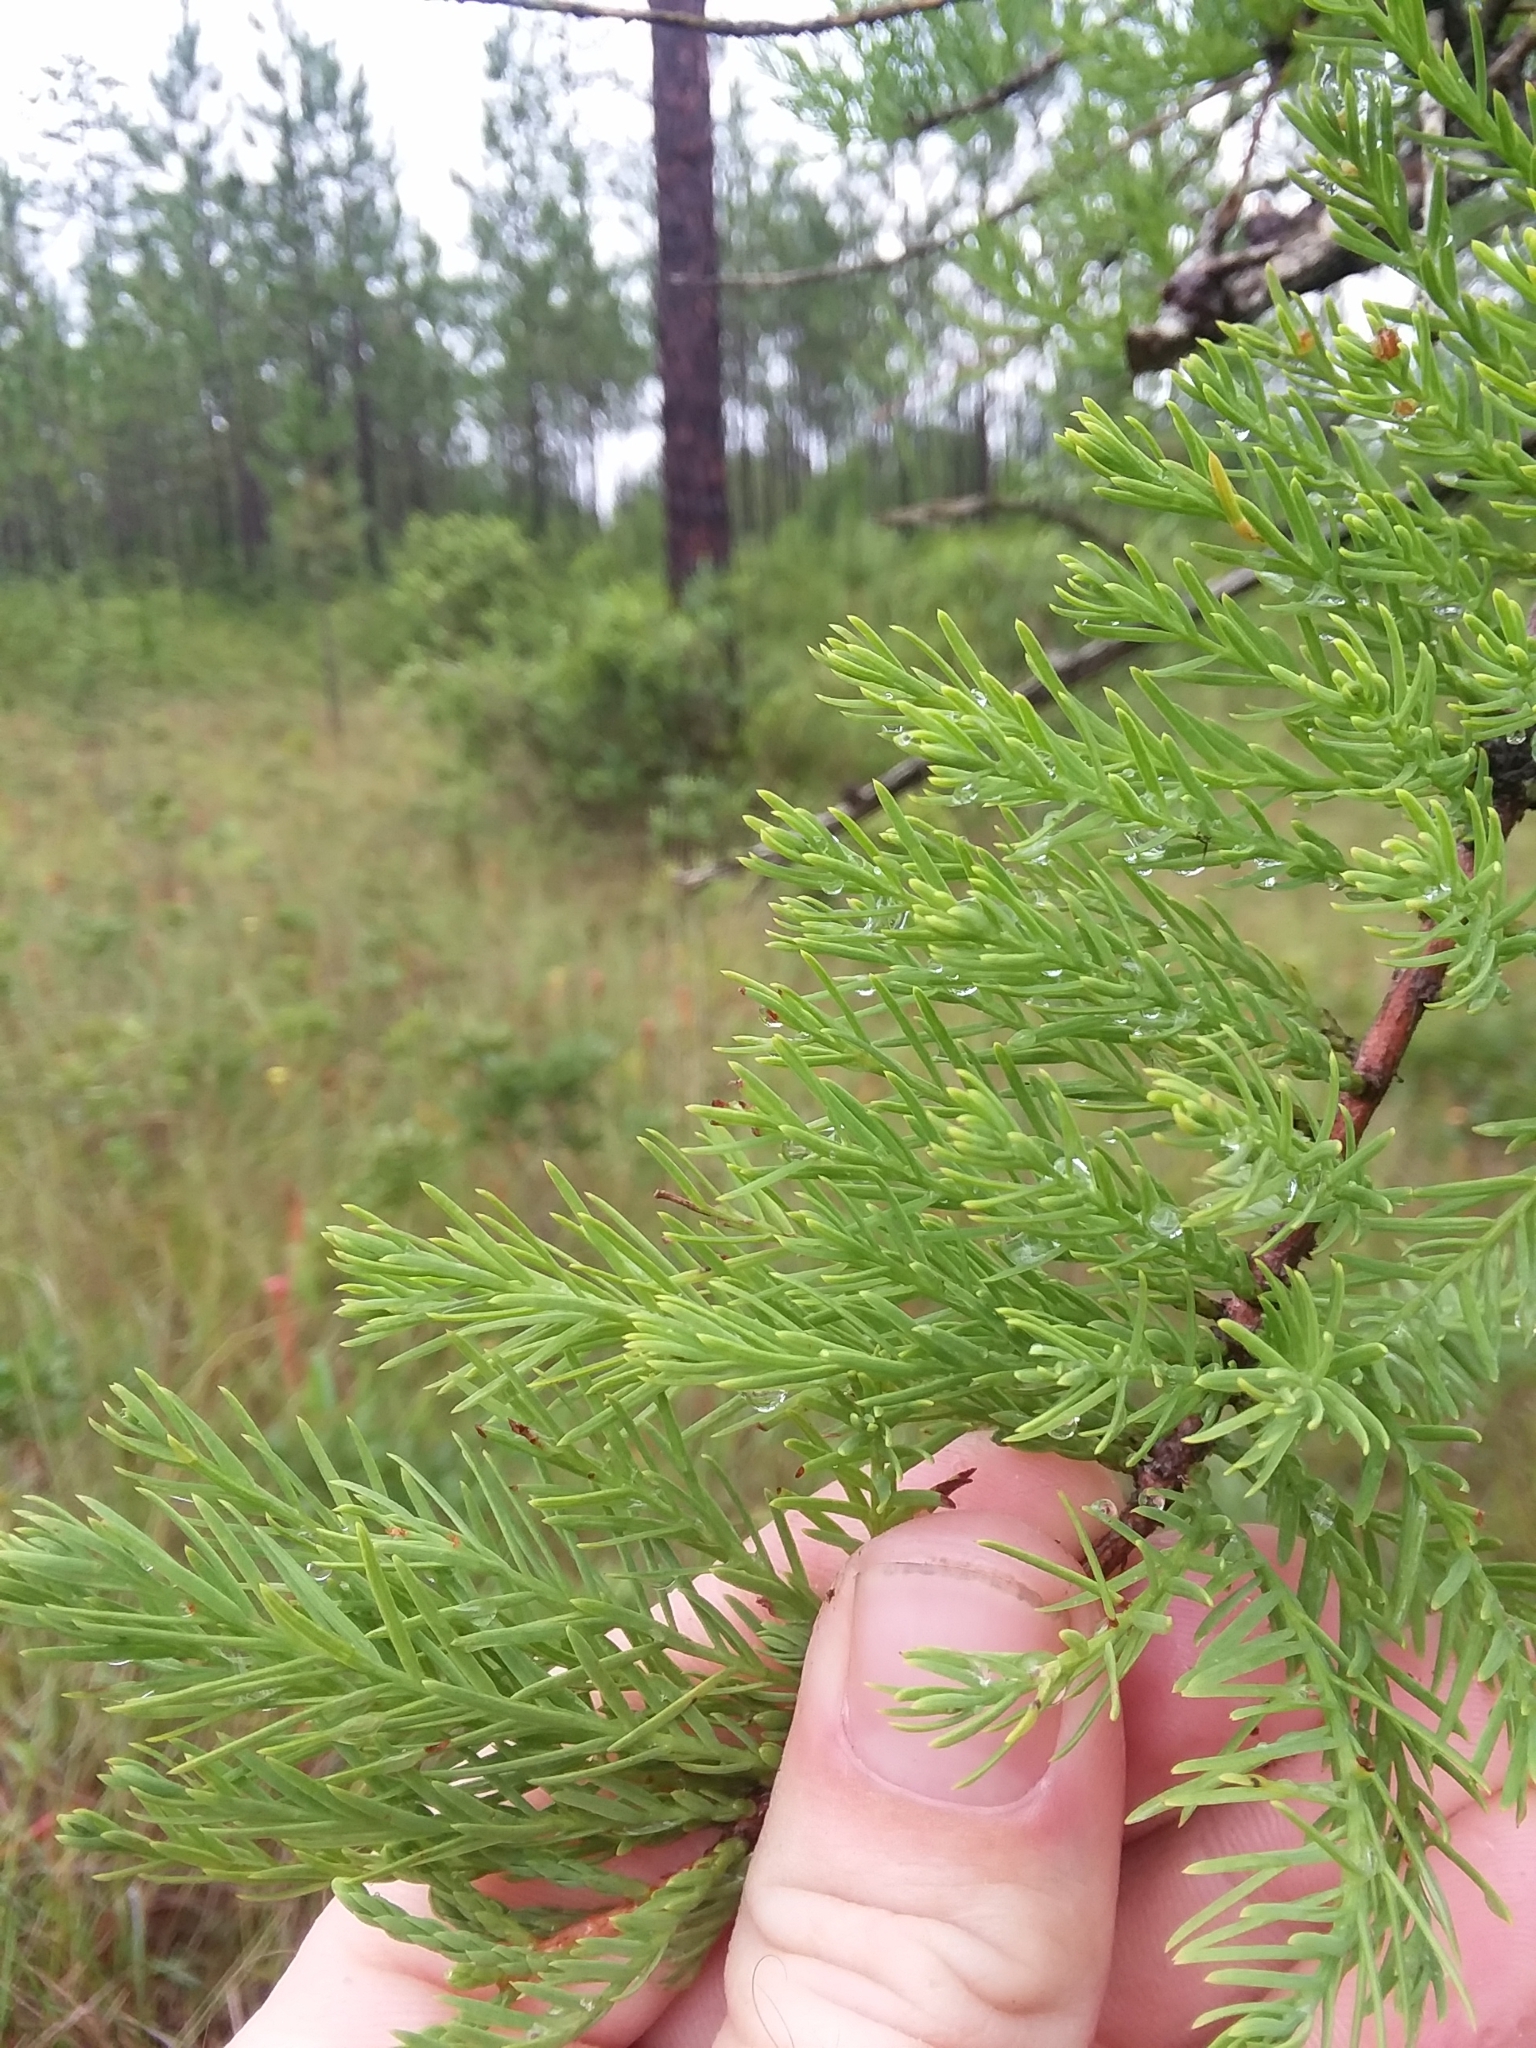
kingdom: Plantae
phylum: Tracheophyta
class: Pinopsida
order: Pinales
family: Cupressaceae
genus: Taxodium
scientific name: Taxodium distichum
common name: Bald cypress
